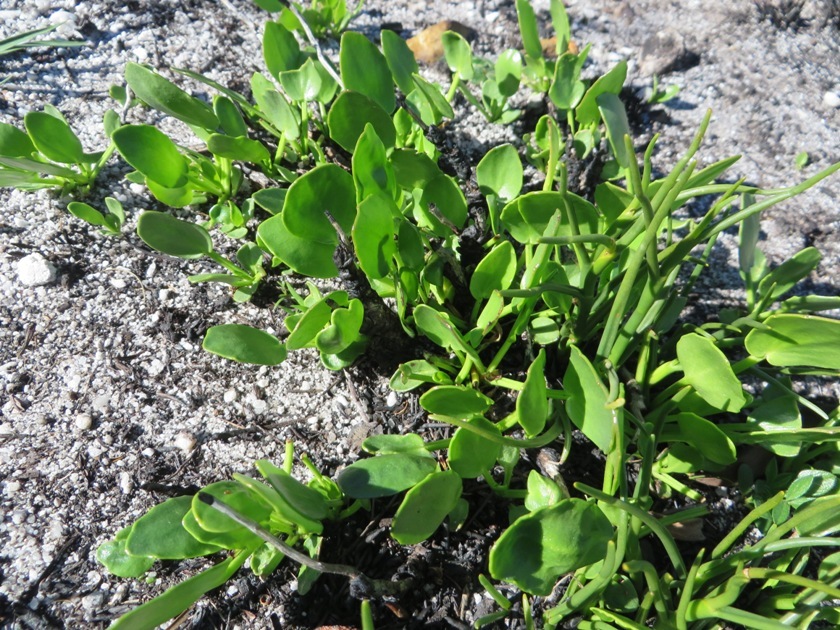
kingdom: Plantae
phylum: Tracheophyta
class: Magnoliopsida
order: Asterales
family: Menyanthaceae
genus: Villarsia
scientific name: Villarsia capensis
